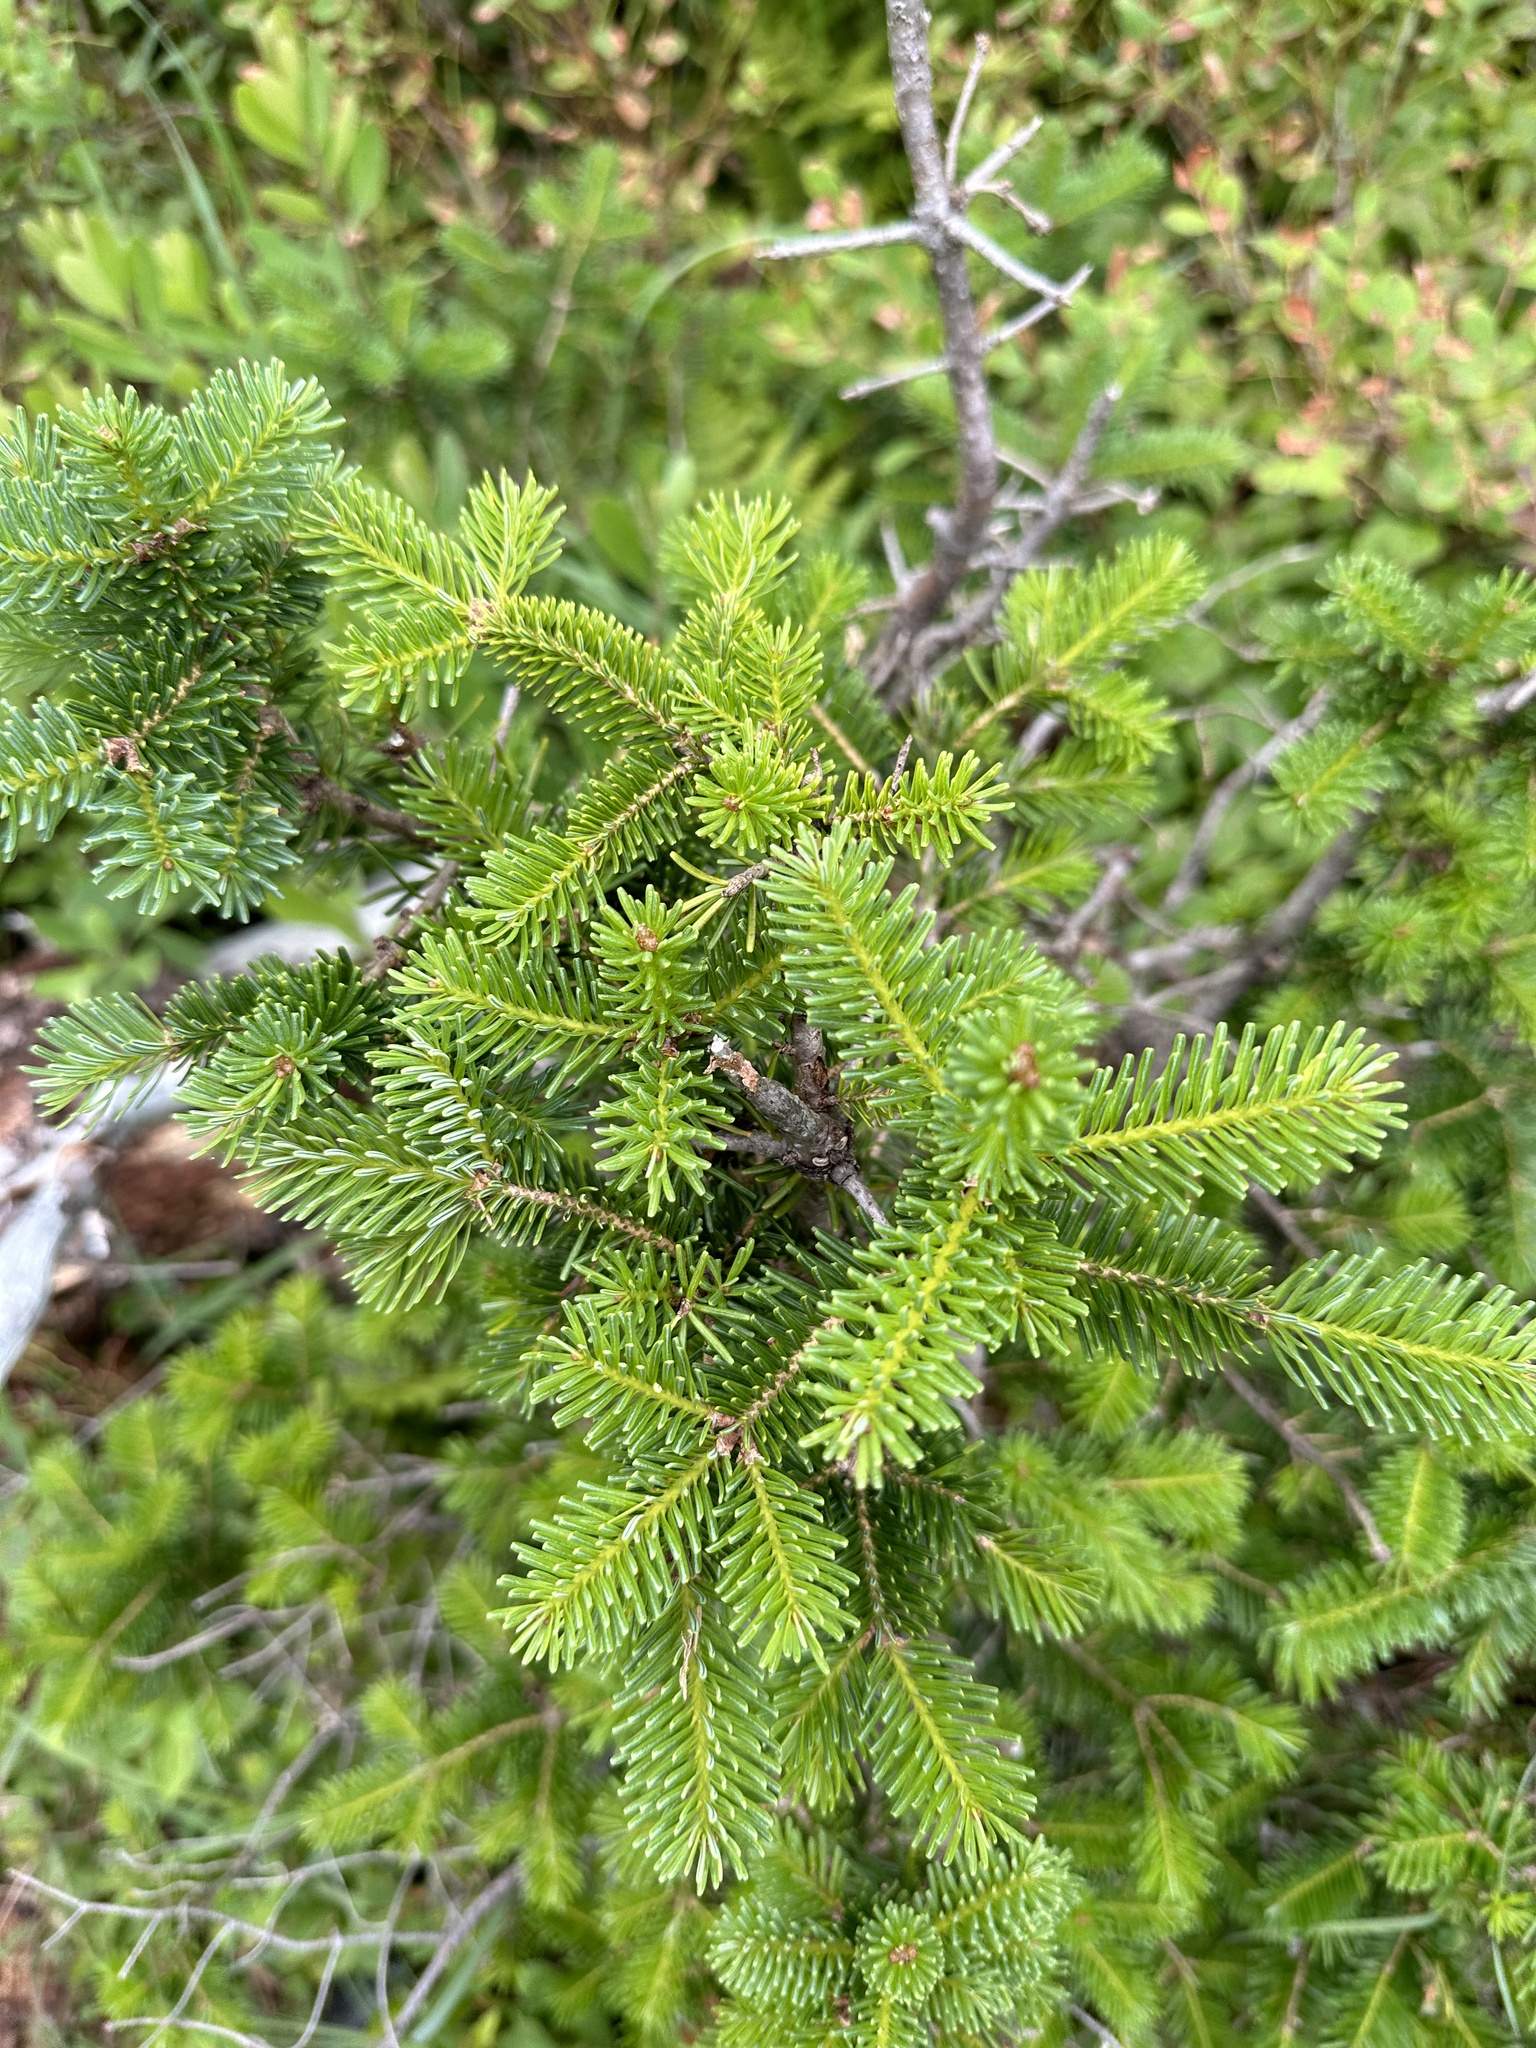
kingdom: Plantae
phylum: Tracheophyta
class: Pinopsida
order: Pinales
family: Pinaceae
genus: Abies
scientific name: Abies balsamea
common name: Balsam fir
